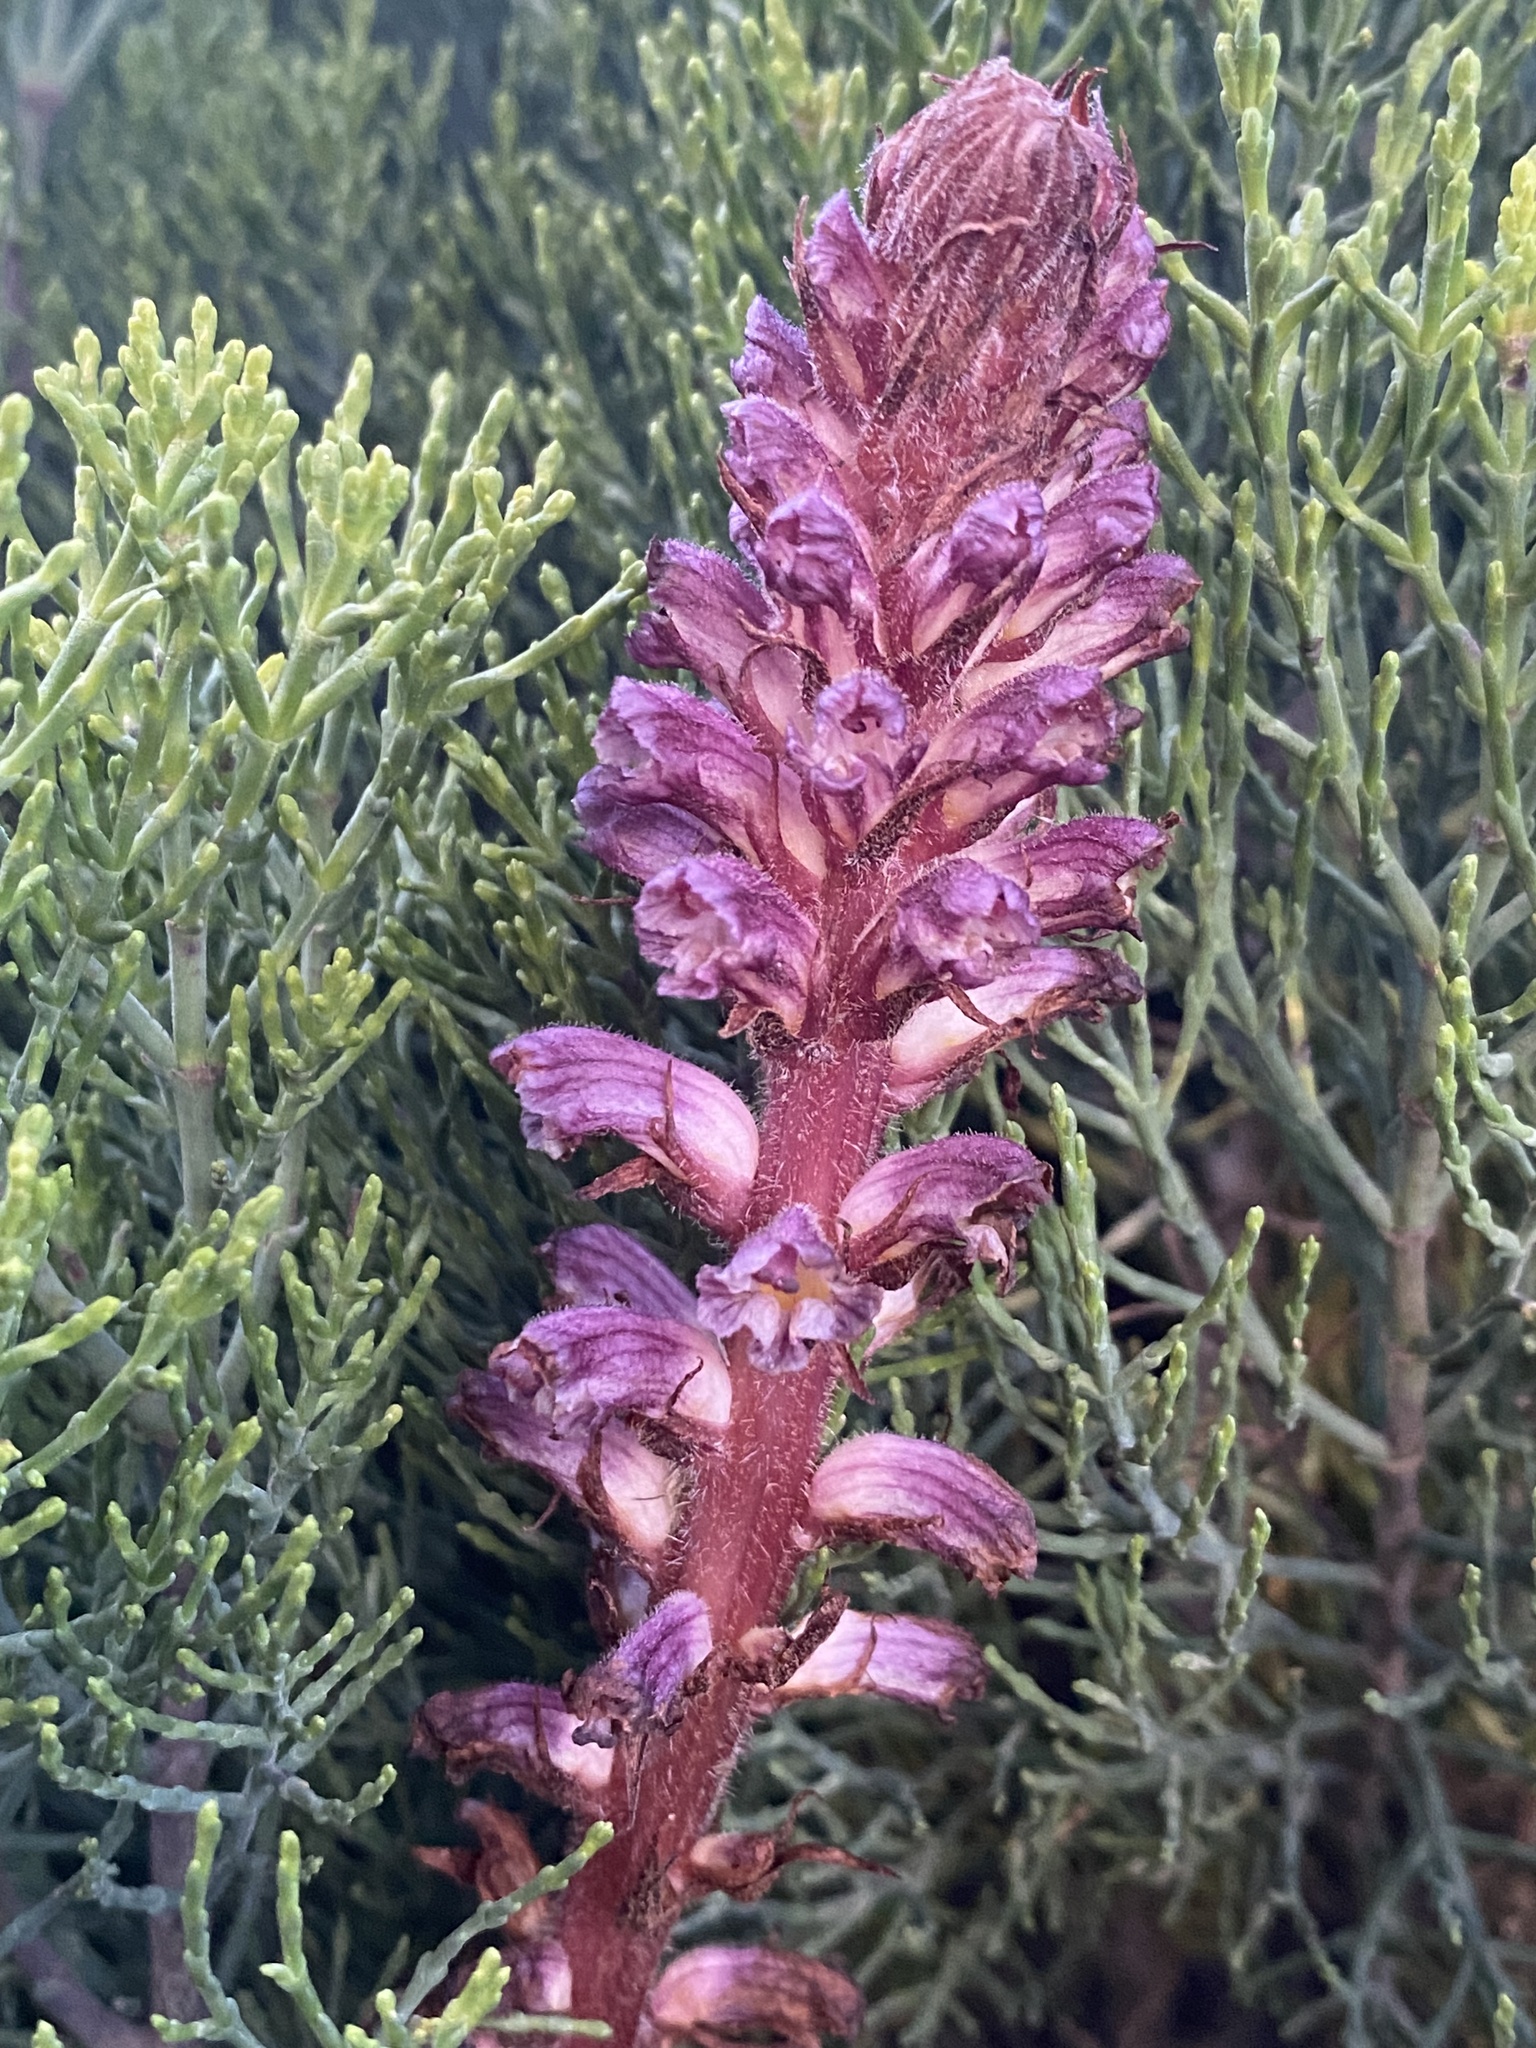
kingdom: Plantae
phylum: Tracheophyta
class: Magnoliopsida
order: Lamiales
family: Orobanchaceae
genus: Orobanche
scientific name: Orobanche minor
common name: Common broomrape
